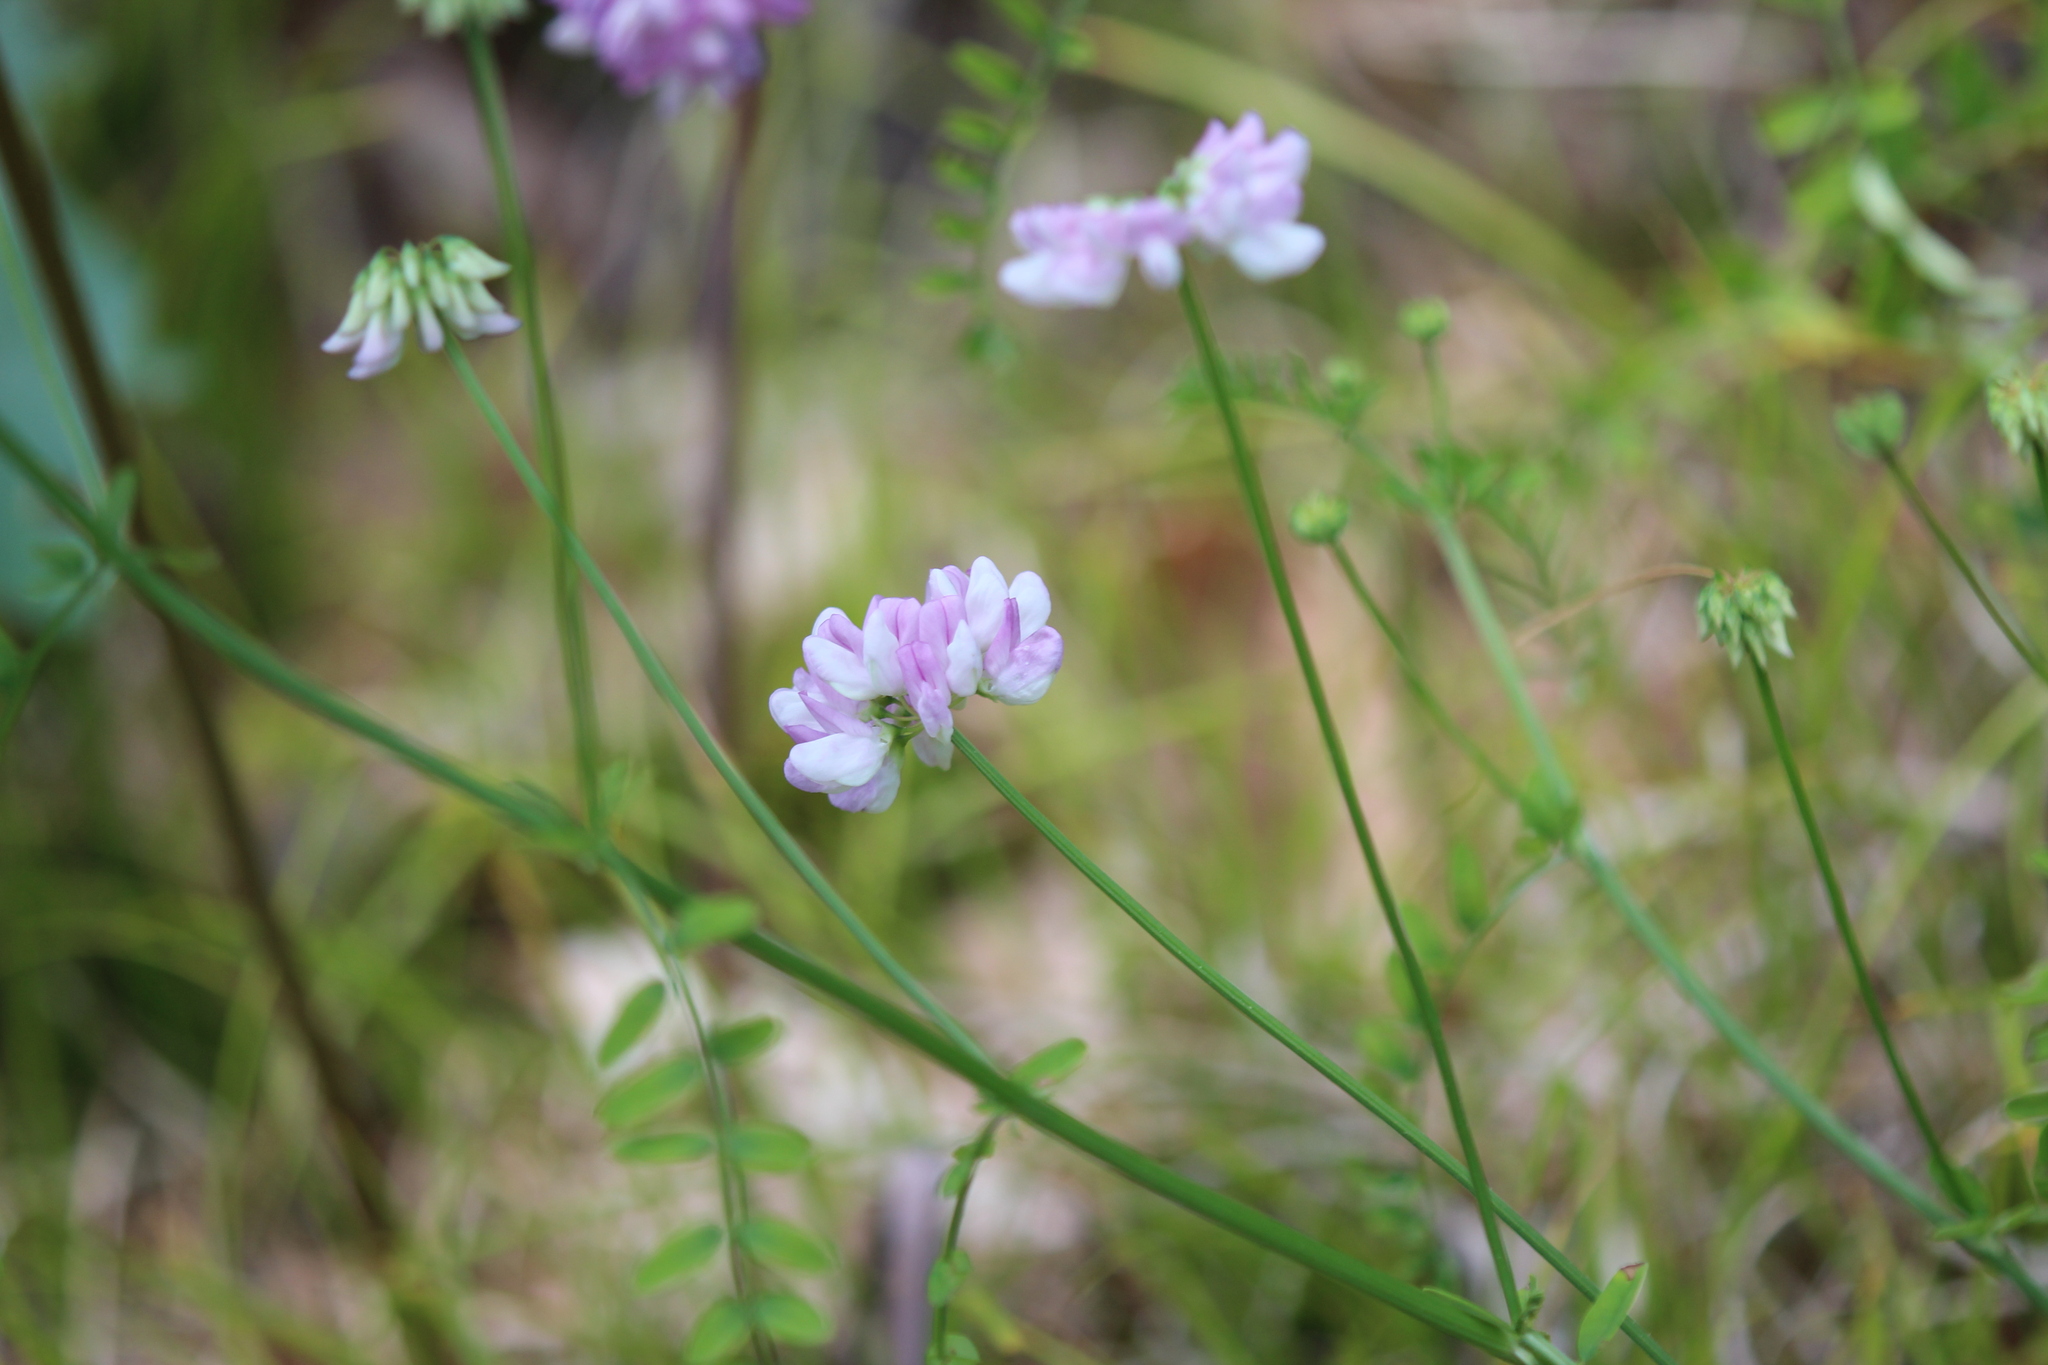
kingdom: Plantae
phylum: Tracheophyta
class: Magnoliopsida
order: Fabales
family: Fabaceae
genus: Coronilla
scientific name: Coronilla varia
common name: Crownvetch
